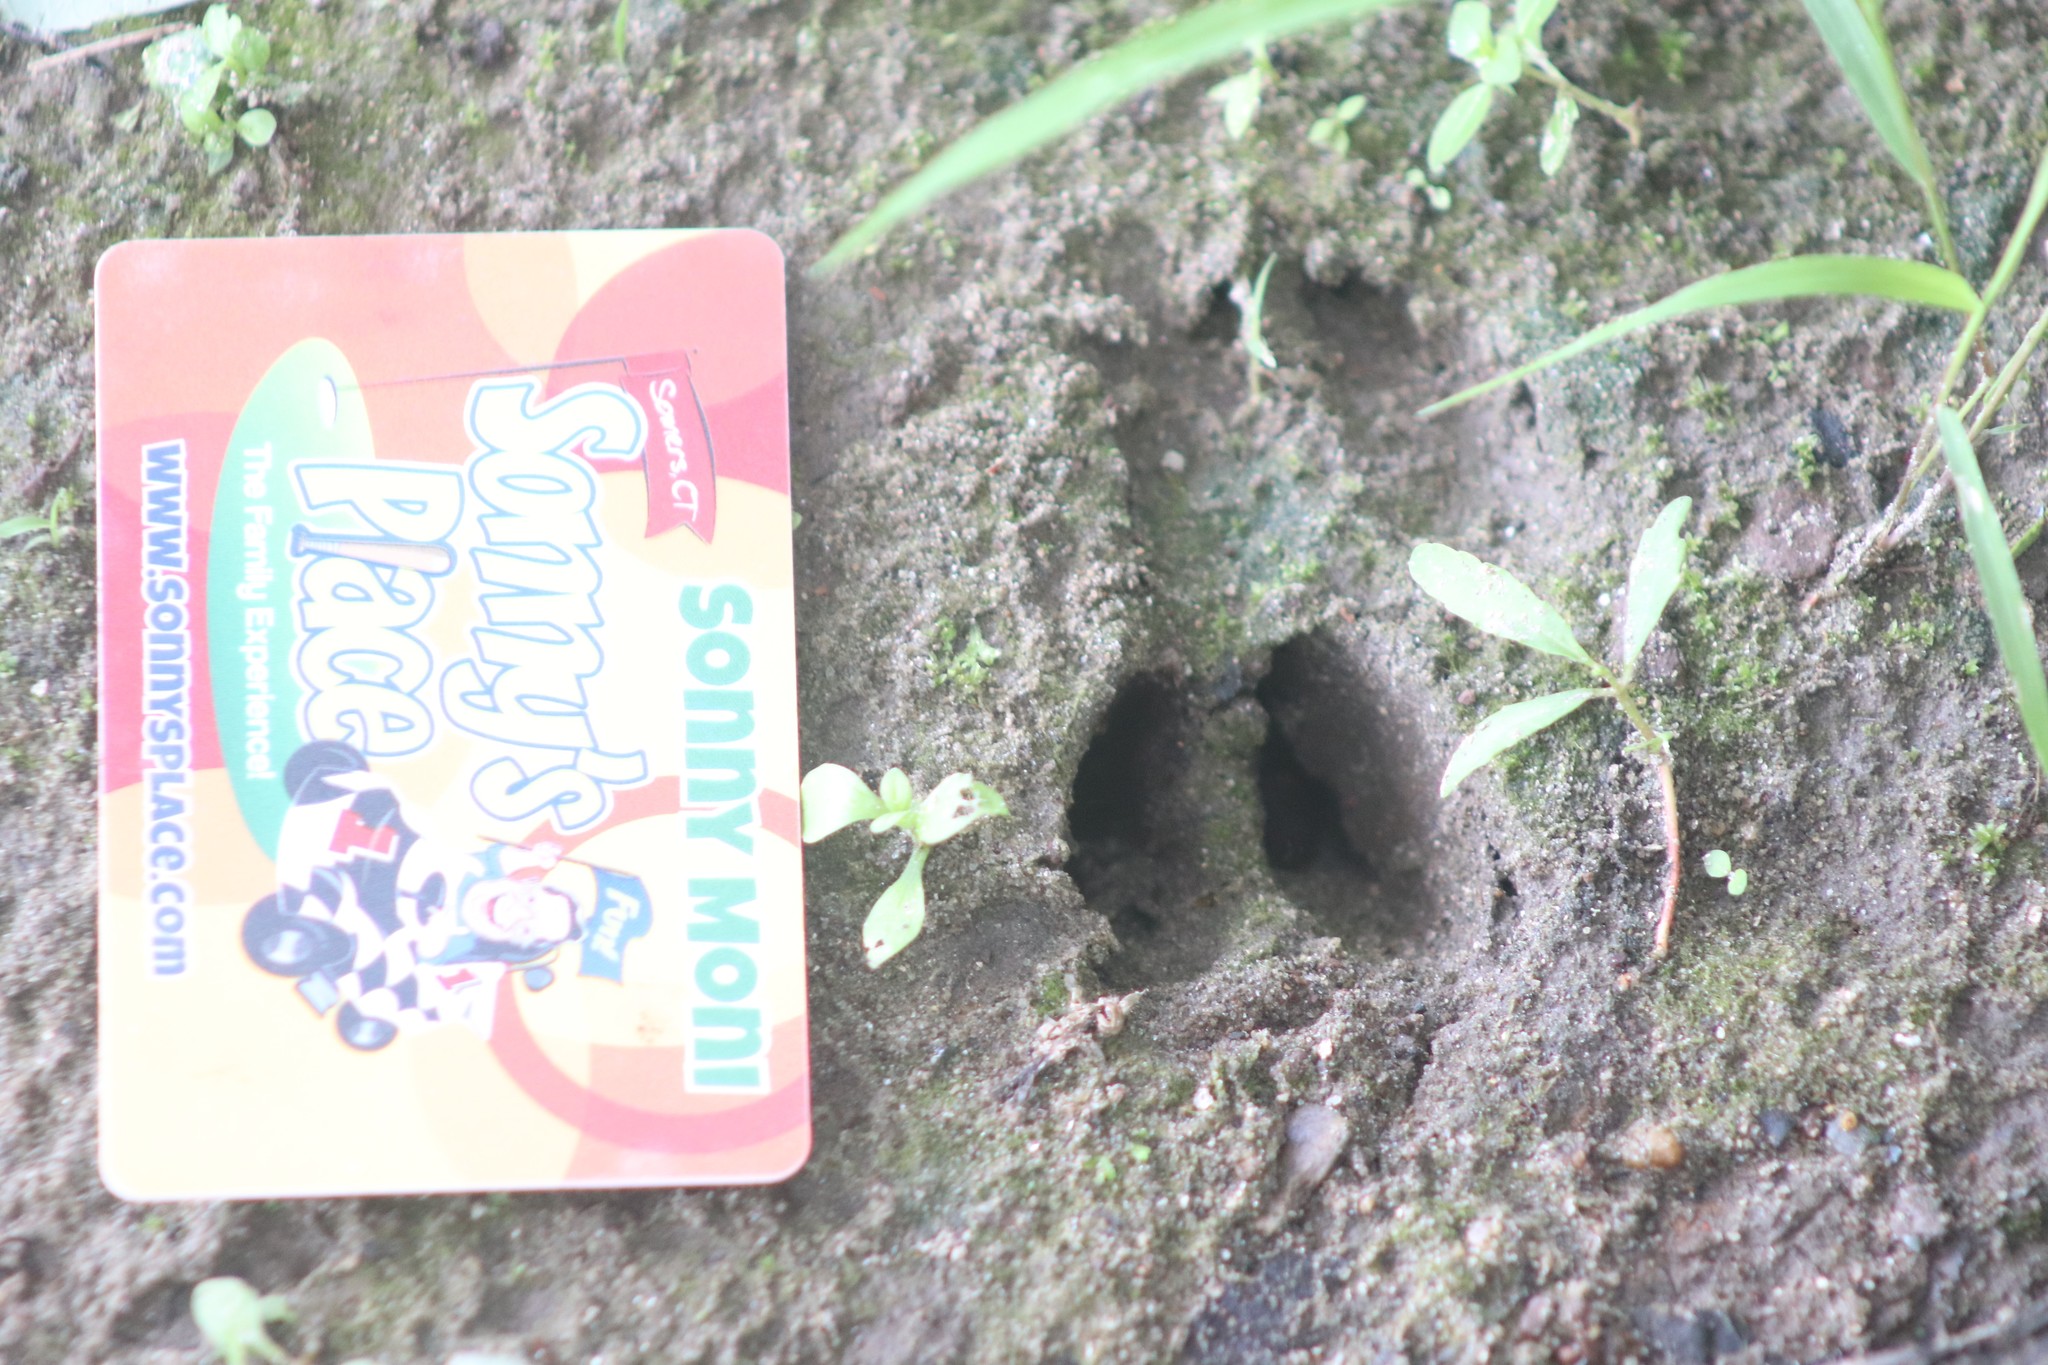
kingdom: Animalia
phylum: Chordata
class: Mammalia
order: Artiodactyla
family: Cervidae
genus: Odocoileus
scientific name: Odocoileus virginianus
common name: White-tailed deer
